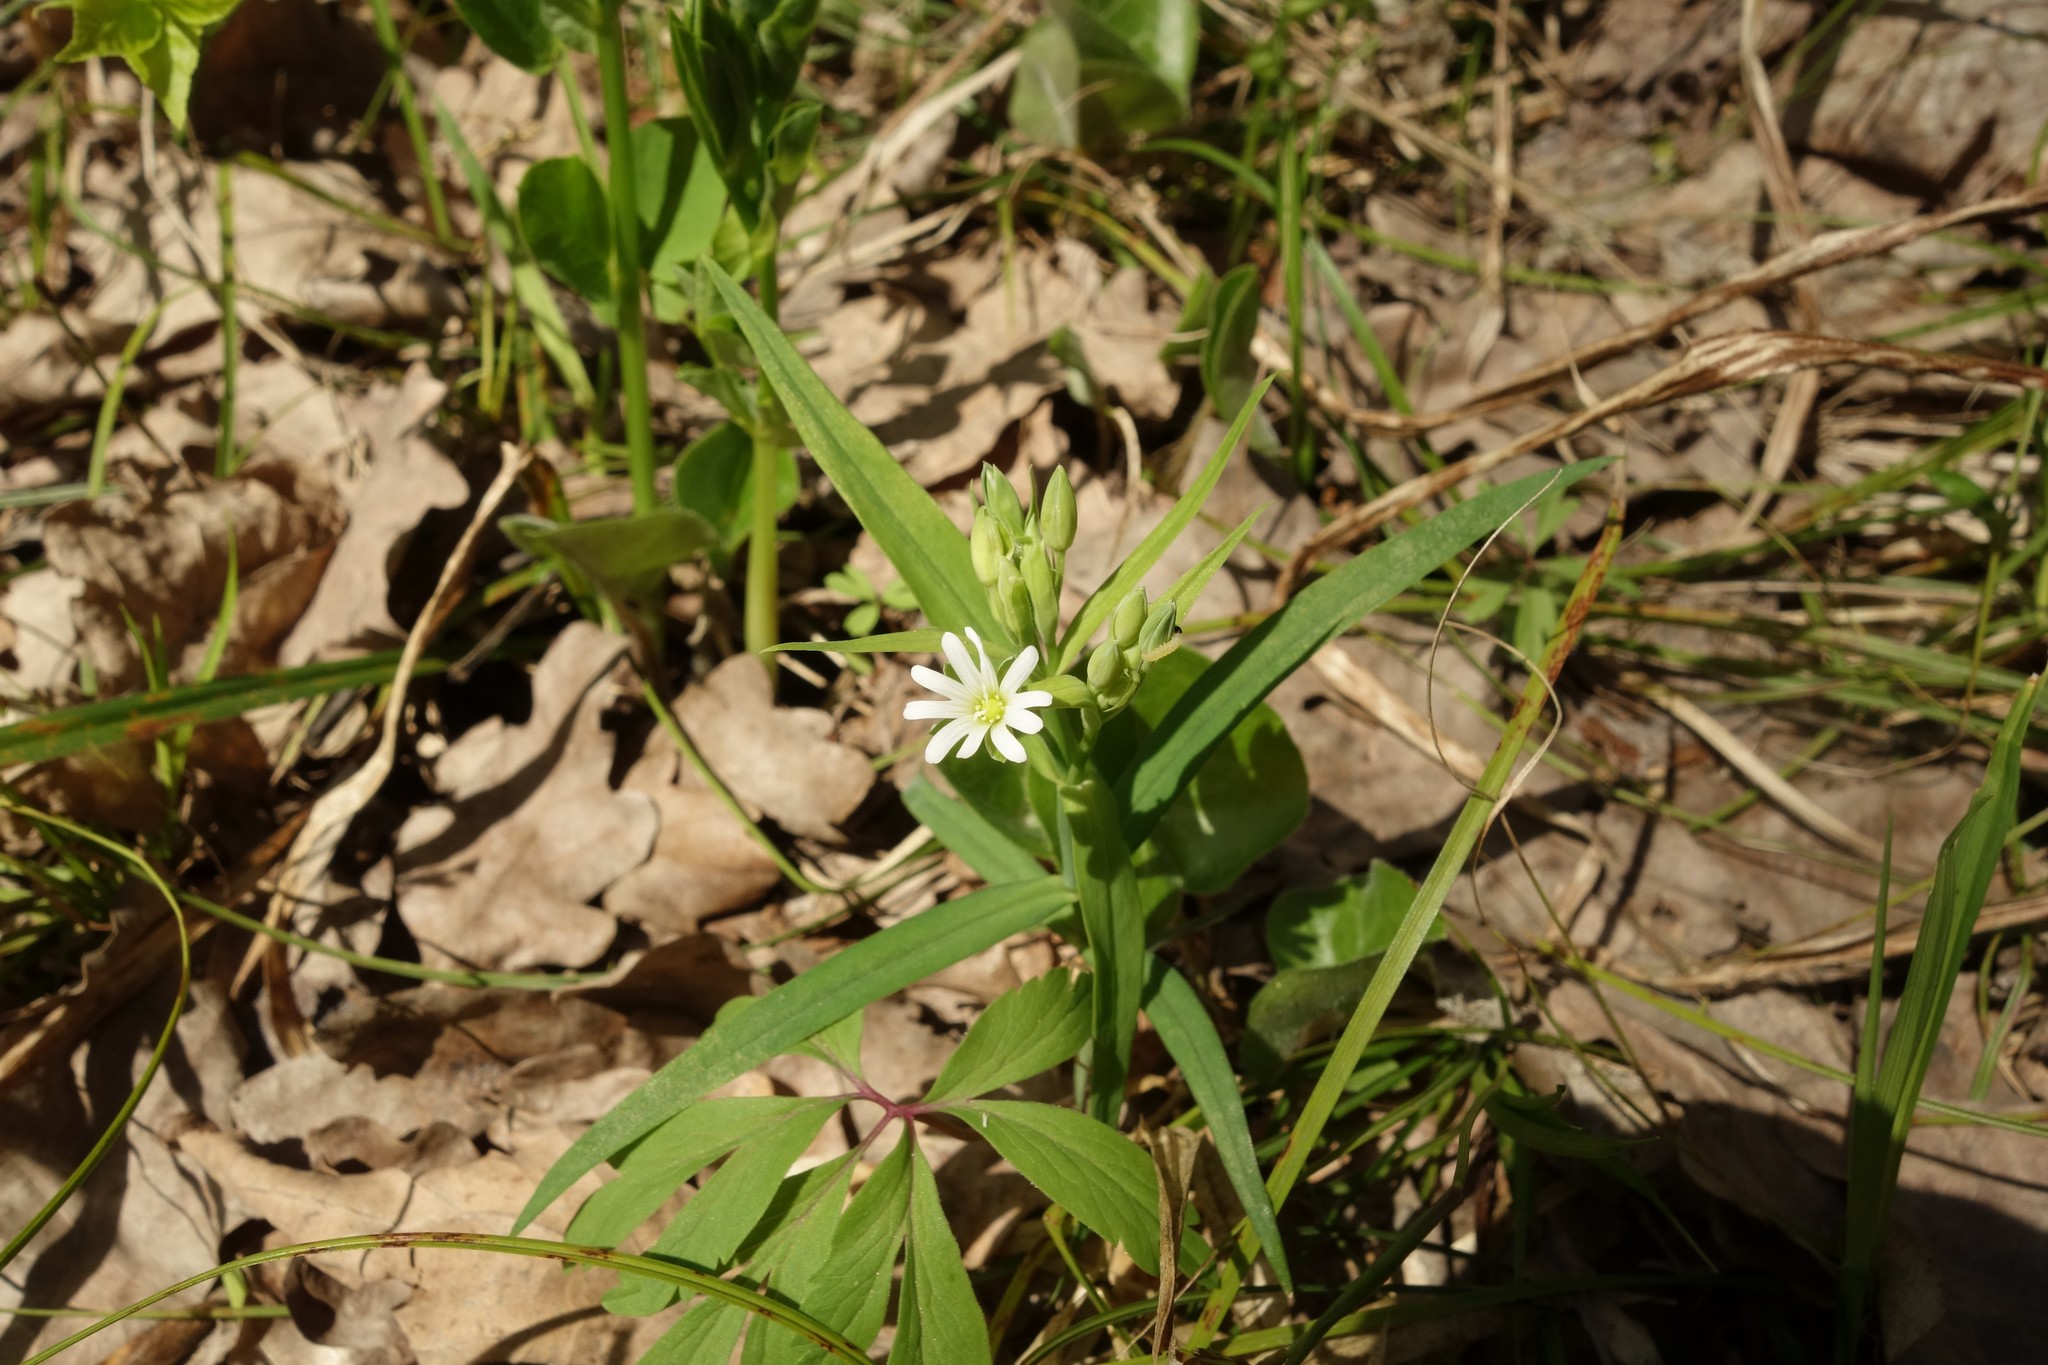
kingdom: Plantae
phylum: Tracheophyta
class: Magnoliopsida
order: Caryophyllales
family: Caryophyllaceae
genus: Rabelera
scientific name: Rabelera holostea
